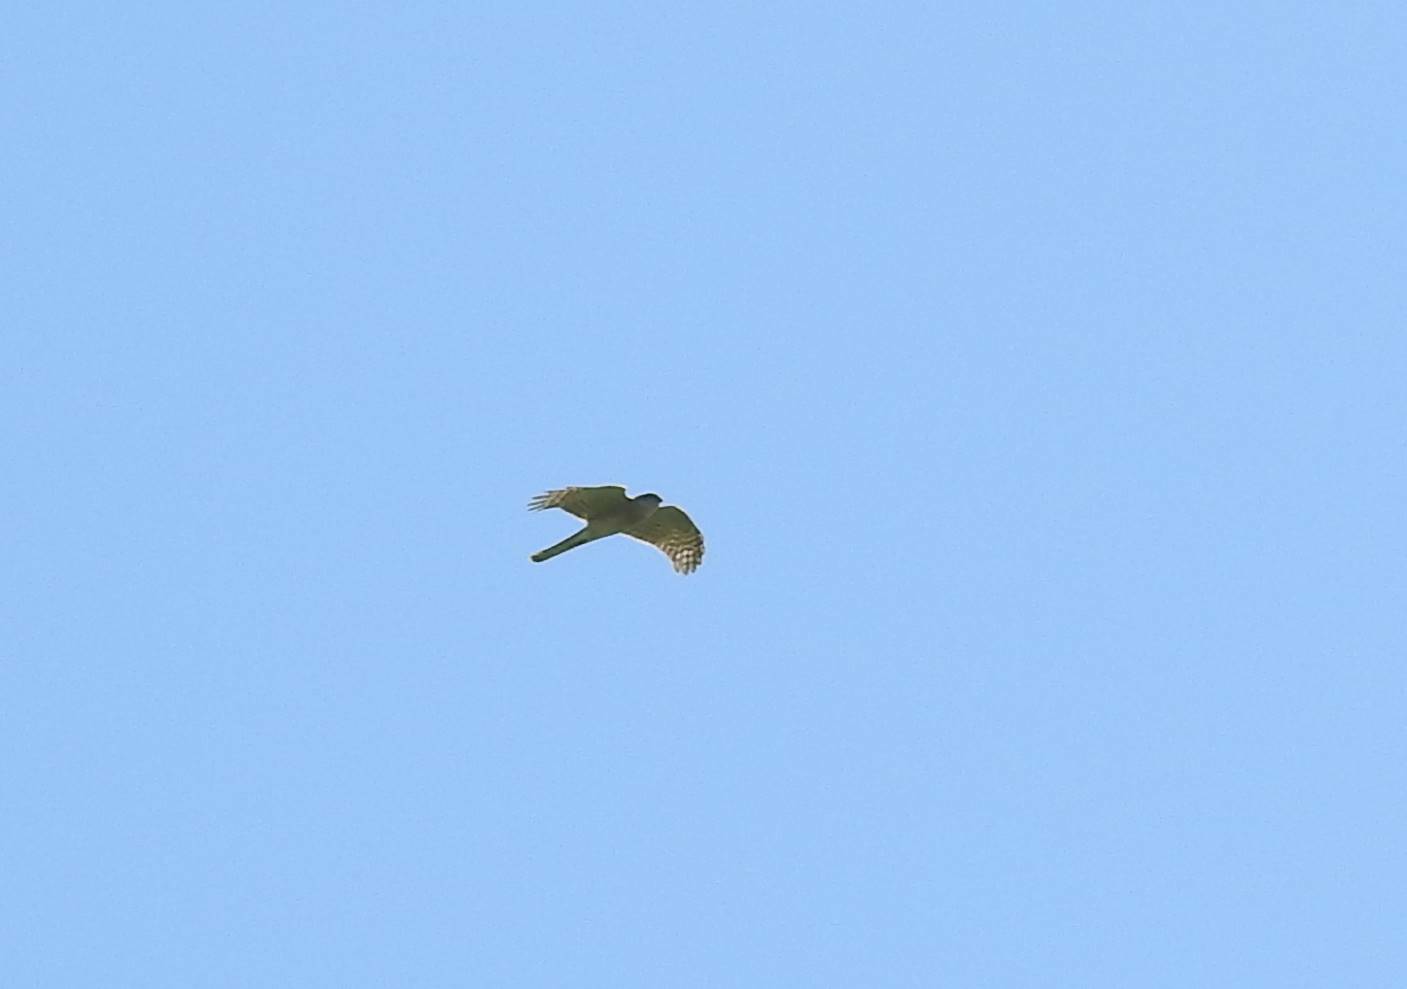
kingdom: Animalia
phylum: Chordata
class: Aves
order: Accipitriformes
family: Accipitridae
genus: Accipiter
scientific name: Accipiter nisus
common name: Eurasian sparrowhawk
